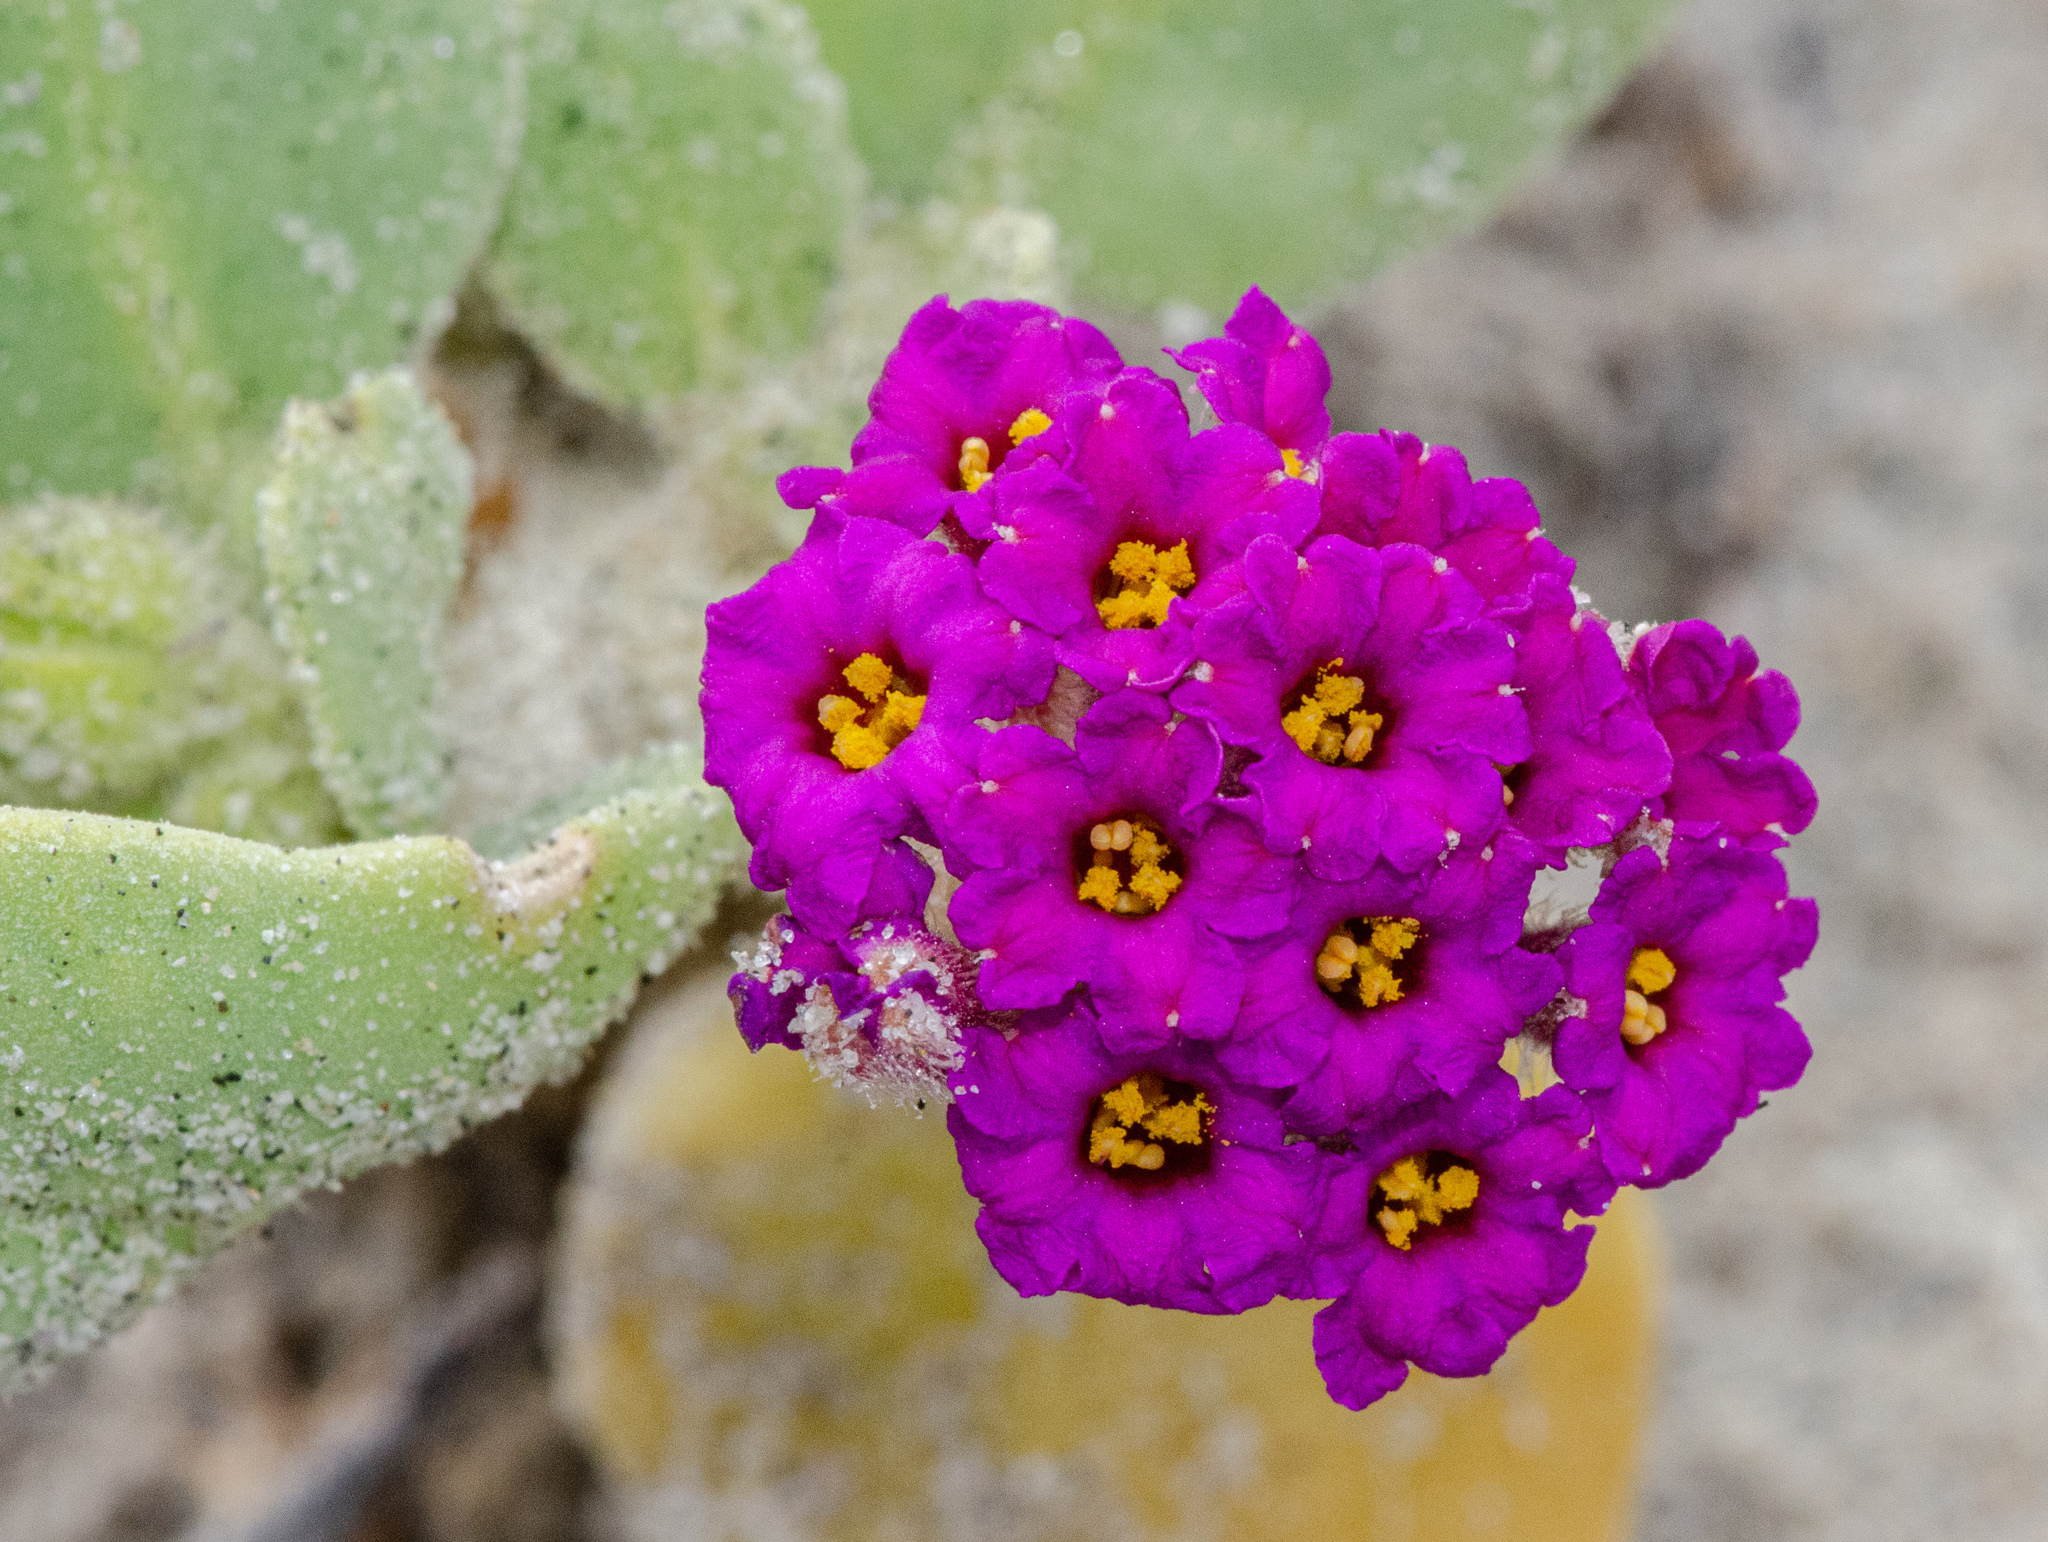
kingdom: Plantae
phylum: Tracheophyta
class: Magnoliopsida
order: Caryophyllales
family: Nyctaginaceae
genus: Abronia
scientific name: Abronia maritima
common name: Red sand-verbena
